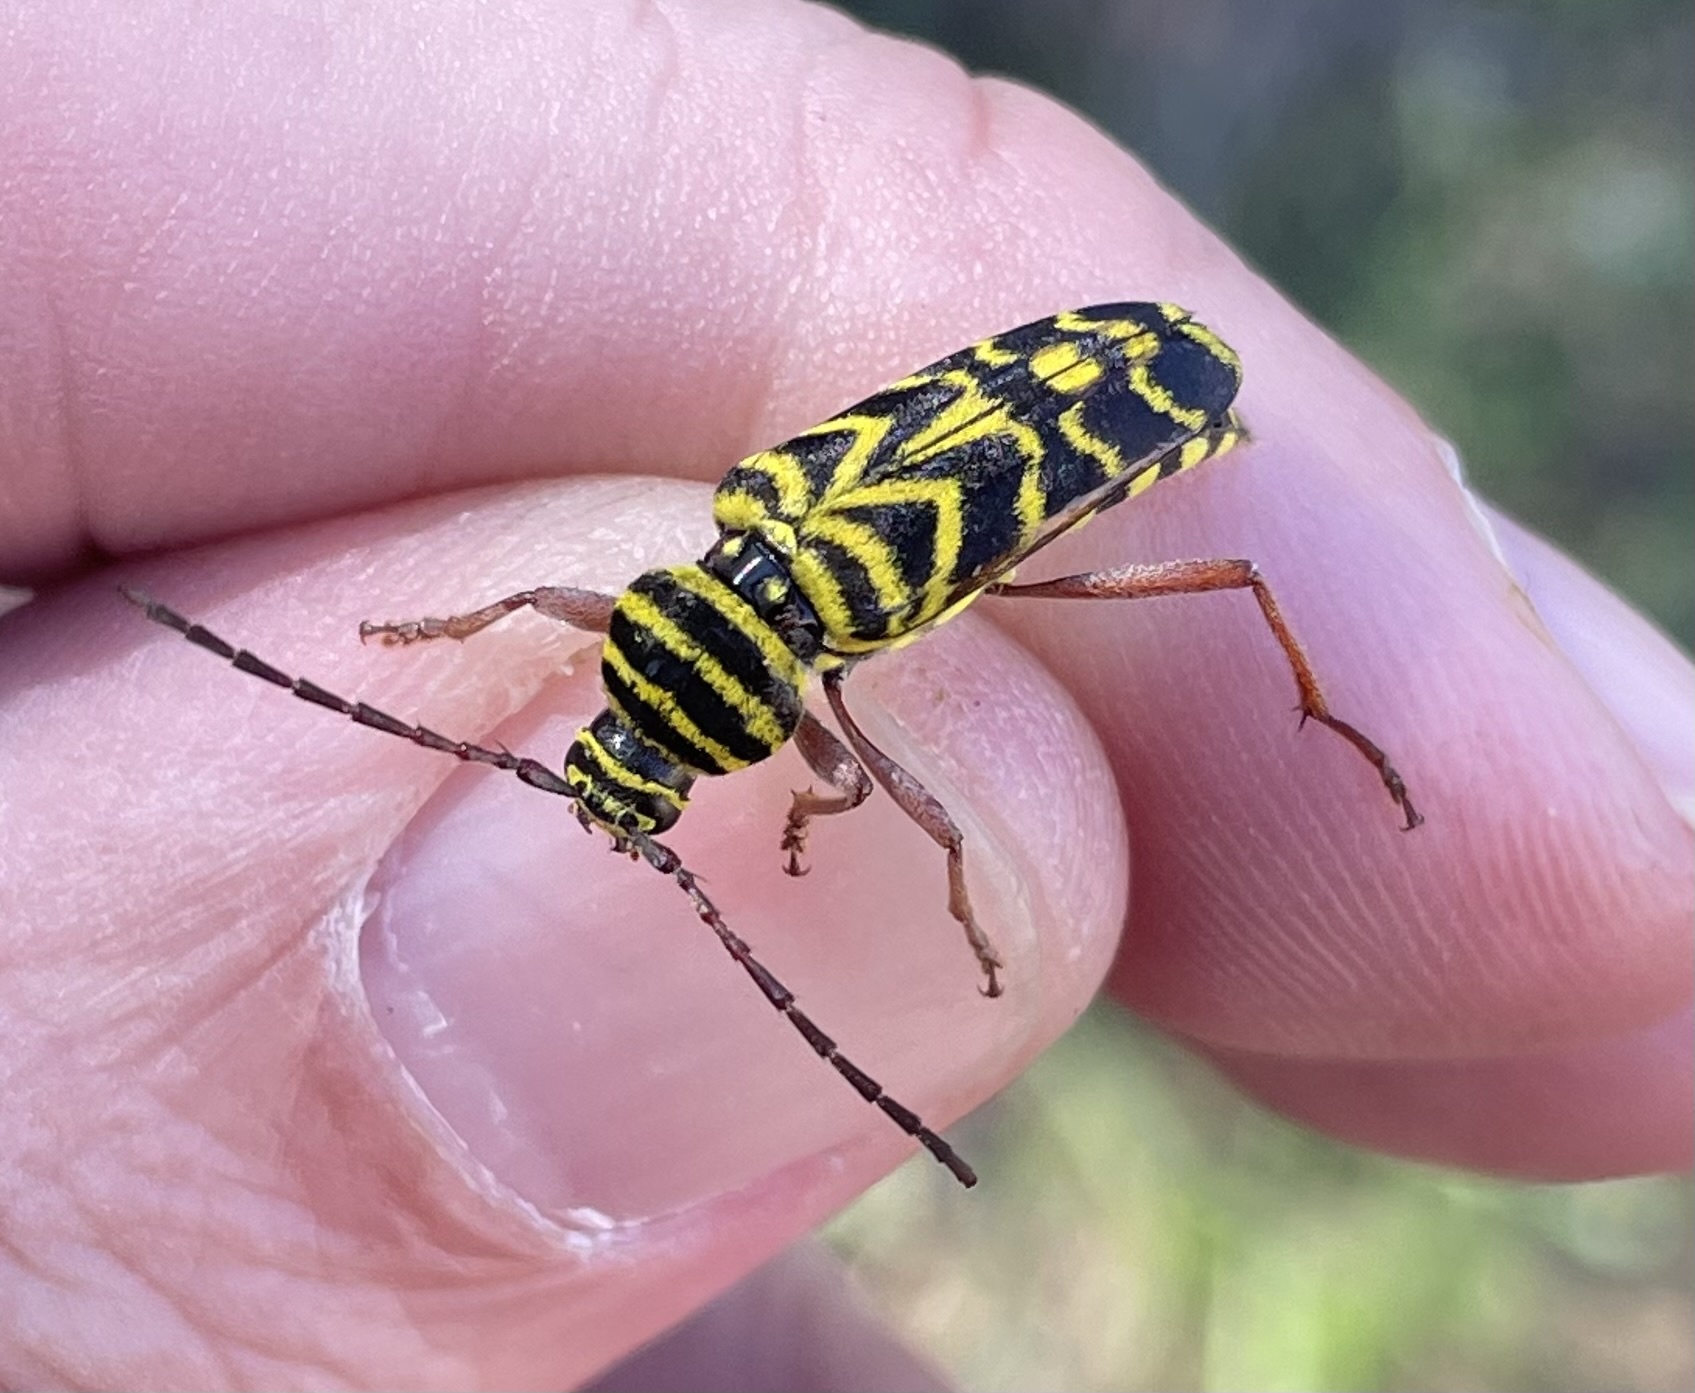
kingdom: Animalia
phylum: Arthropoda
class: Insecta
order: Coleoptera
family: Cerambycidae
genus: Megacyllene
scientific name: Megacyllene robiniae
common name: Locust borer
